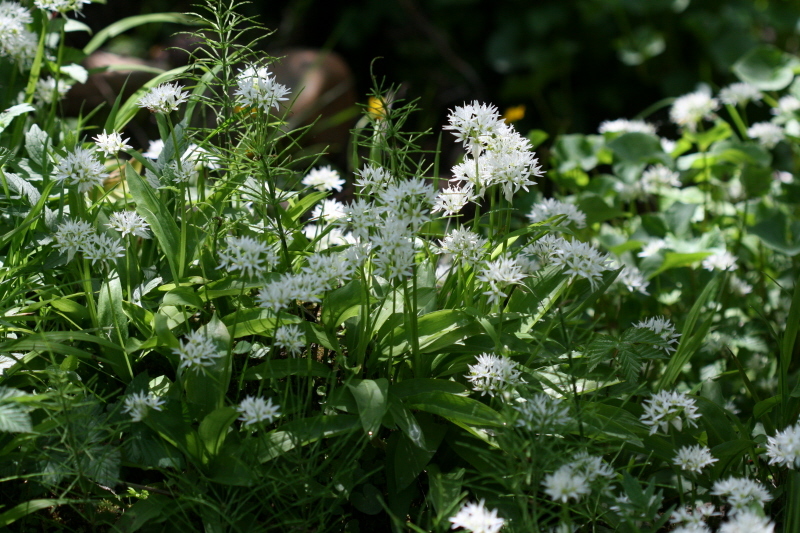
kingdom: Plantae
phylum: Tracheophyta
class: Liliopsida
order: Asparagales
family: Amaryllidaceae
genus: Allium
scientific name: Allium ursinum
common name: Ramsons
